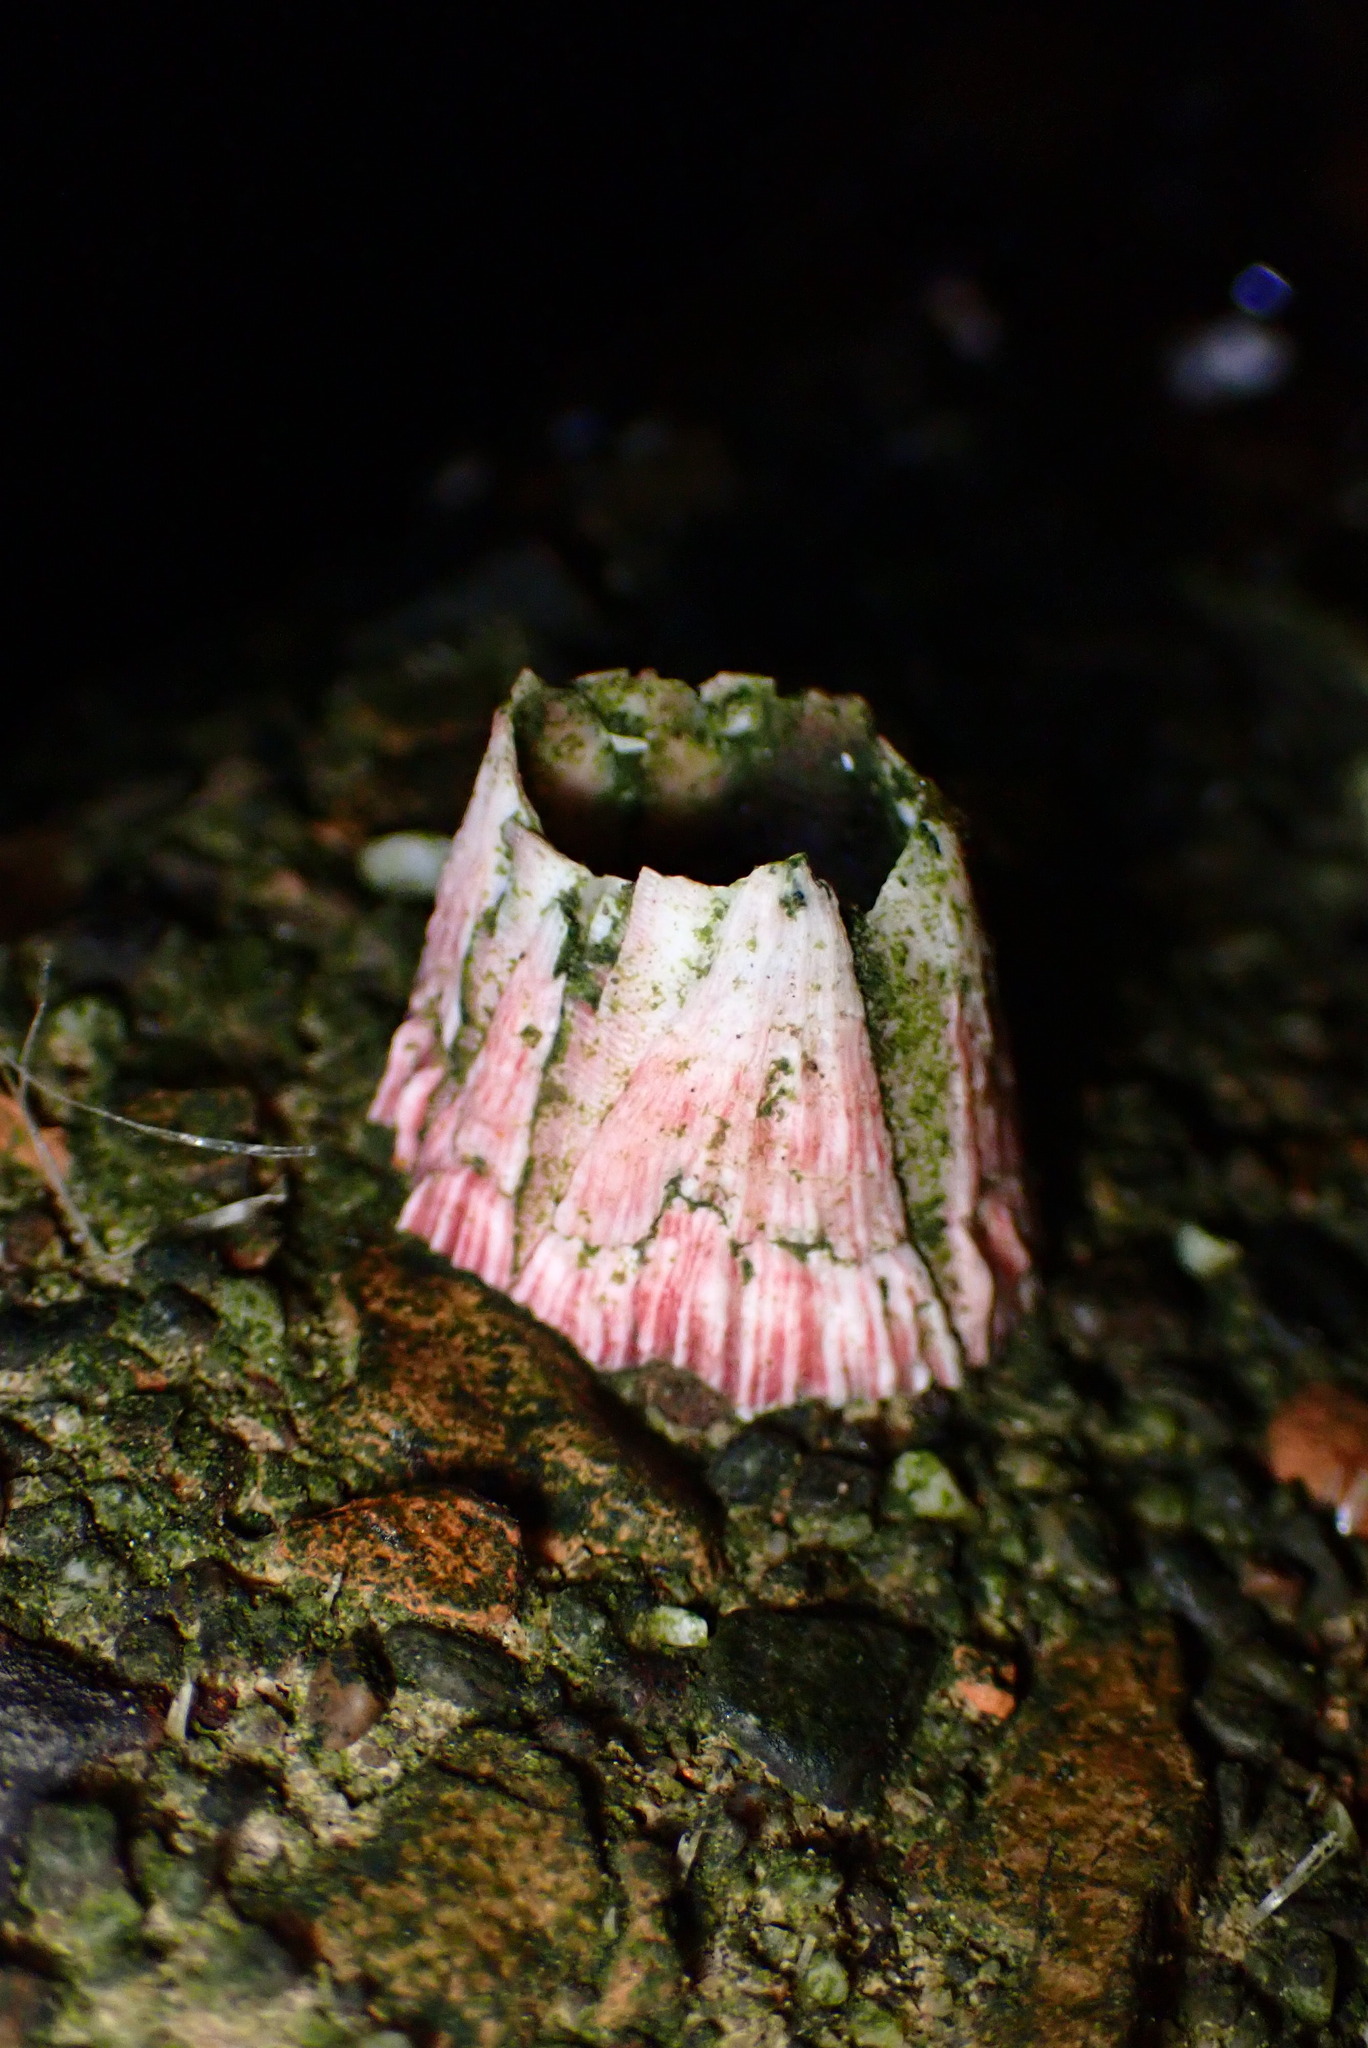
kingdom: Animalia
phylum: Arthropoda
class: Maxillopoda
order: Sessilia
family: Tetraclitidae
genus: Tetraclita
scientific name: Tetraclita rubescens
